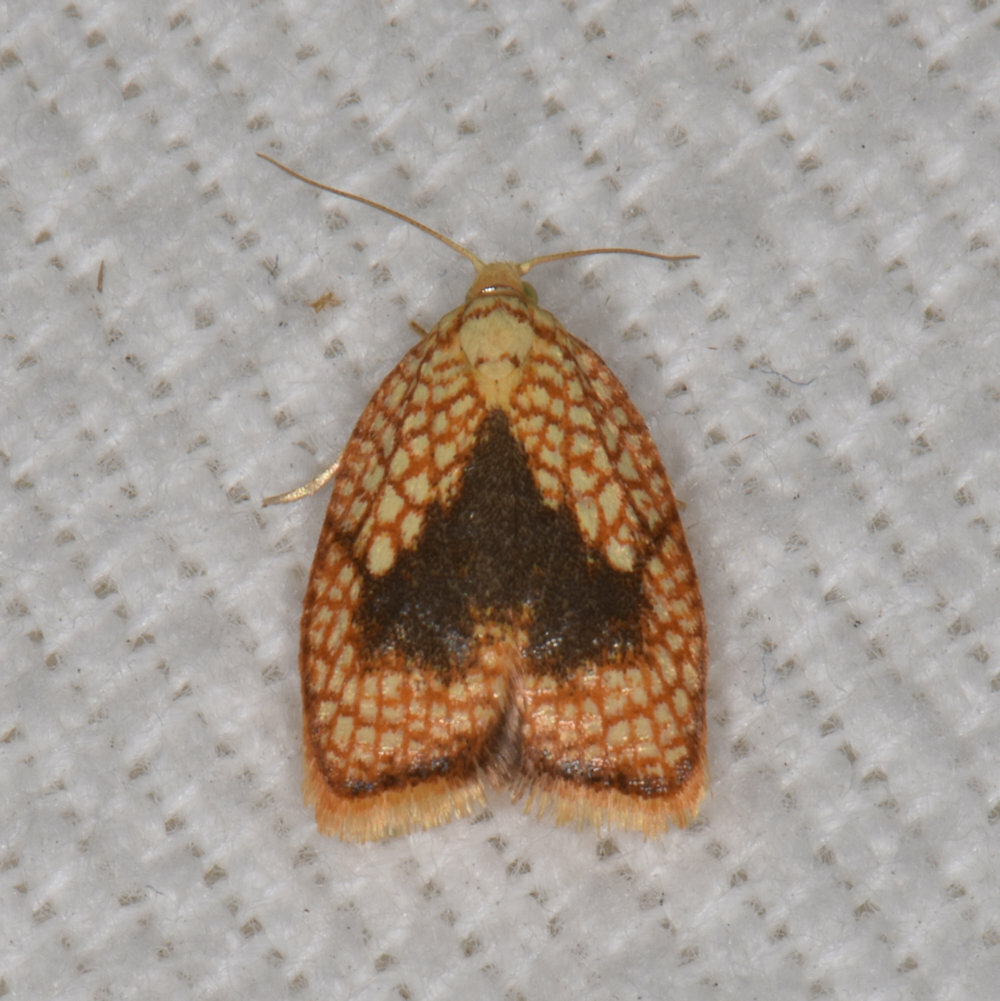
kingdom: Animalia
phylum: Arthropoda
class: Insecta
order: Lepidoptera
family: Tortricidae
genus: Acleris
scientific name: Acleris forsskaleana
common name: Maple button
